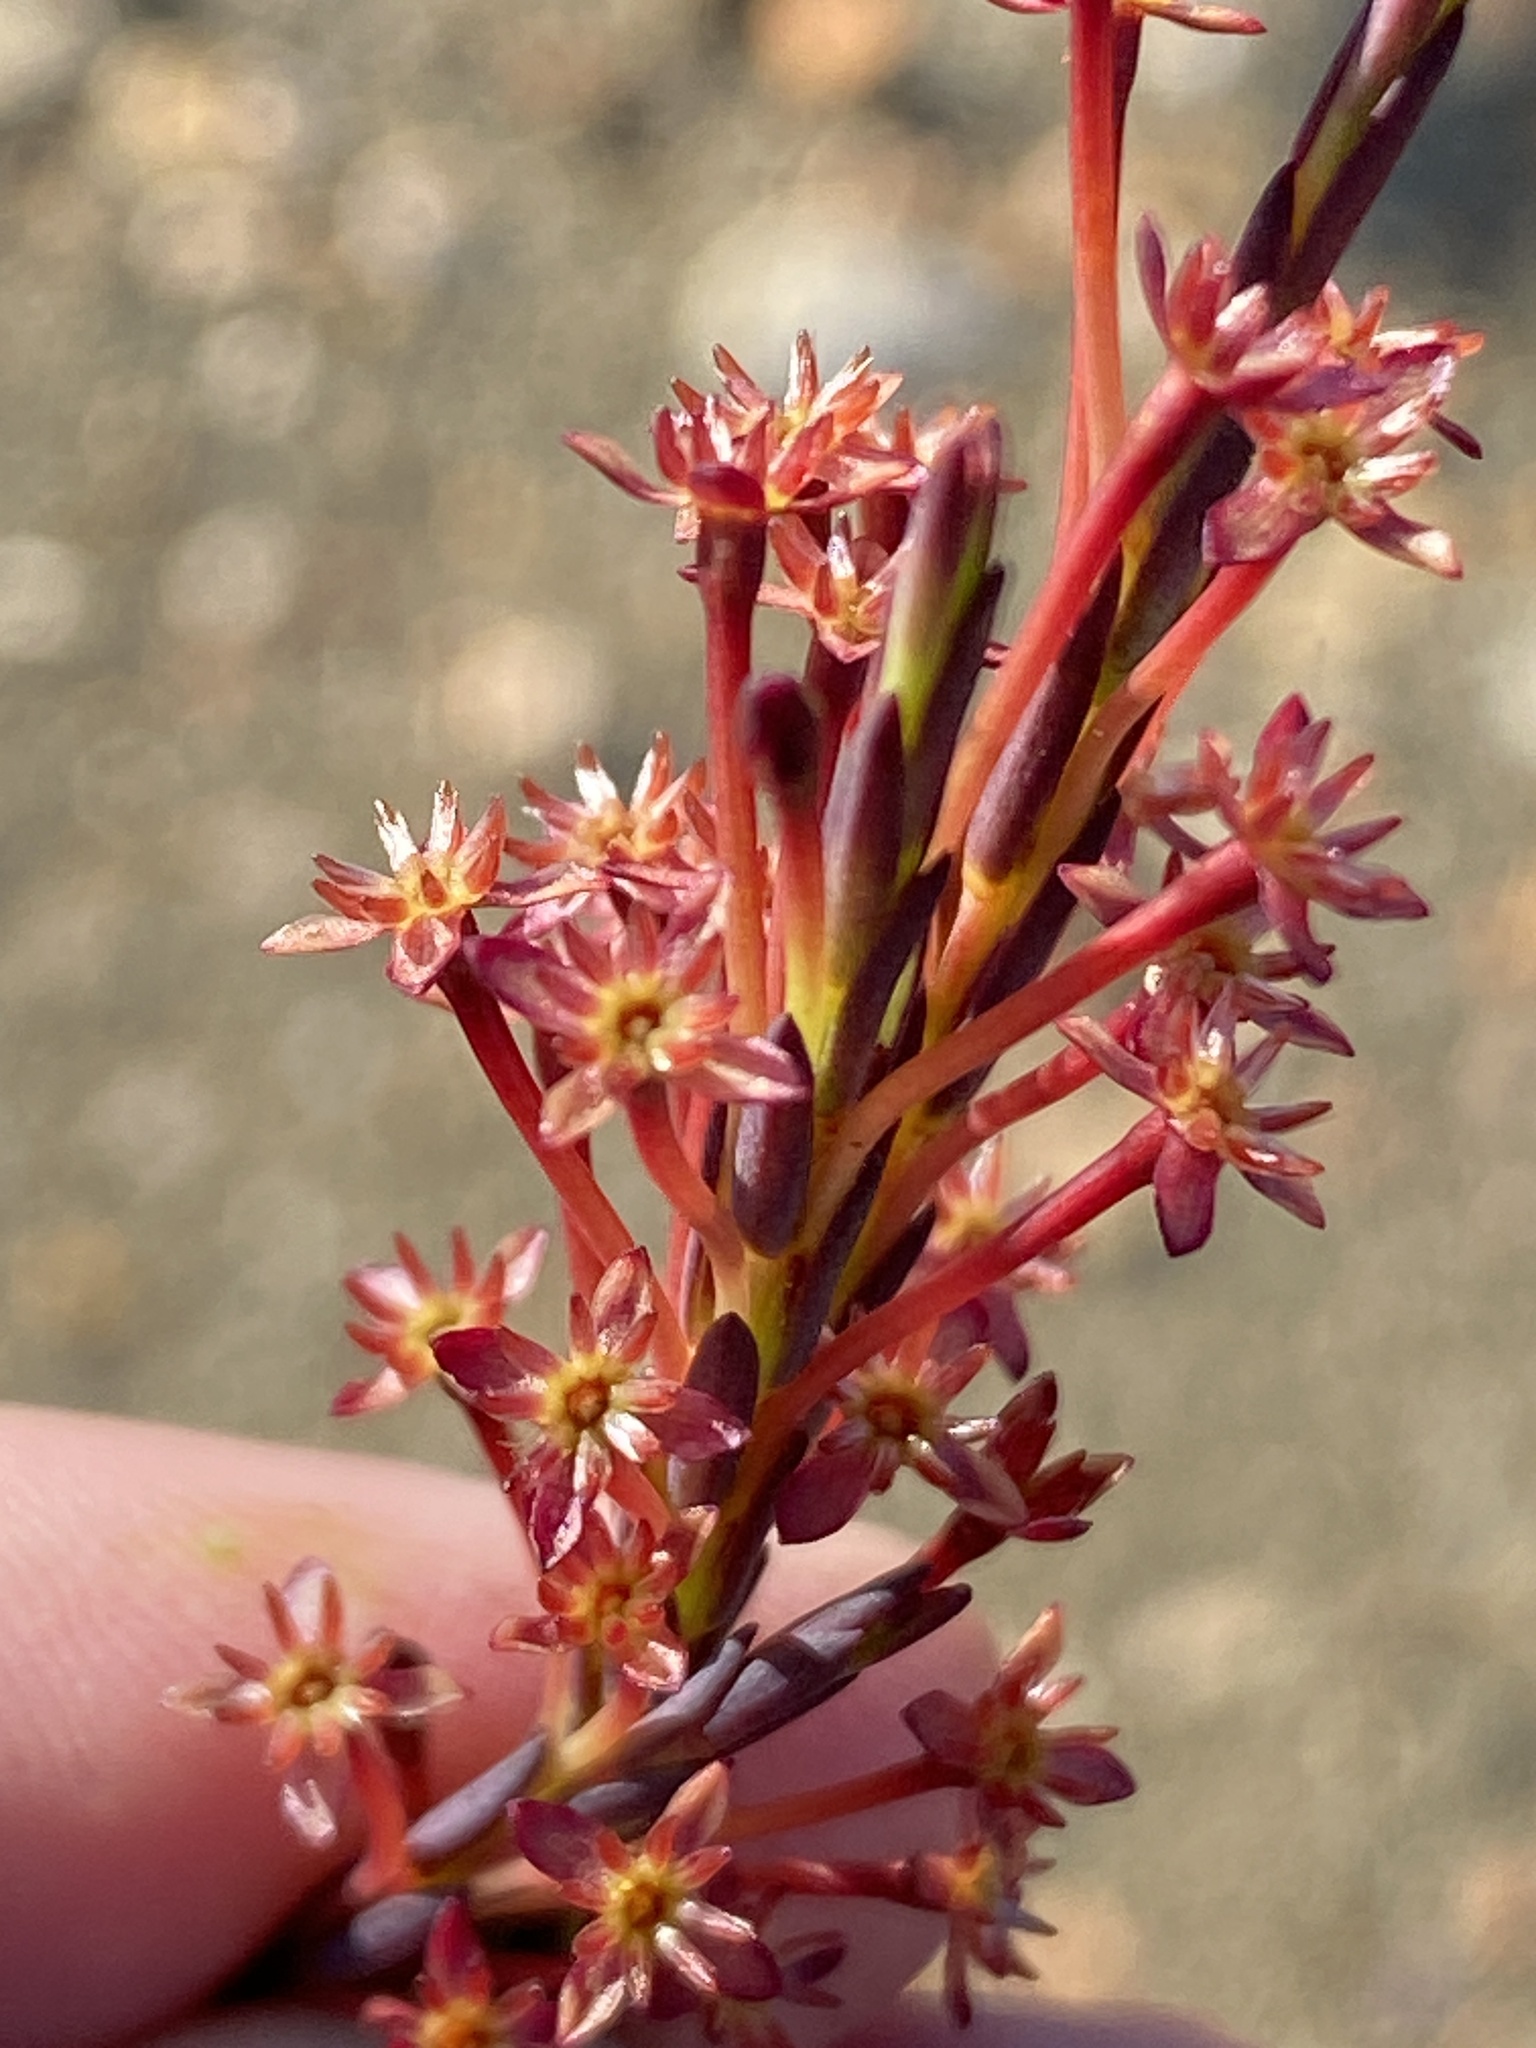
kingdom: Plantae
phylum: Tracheophyta
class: Magnoliopsida
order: Malvales
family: Thymelaeaceae
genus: Struthiola
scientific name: Struthiola macowanii
